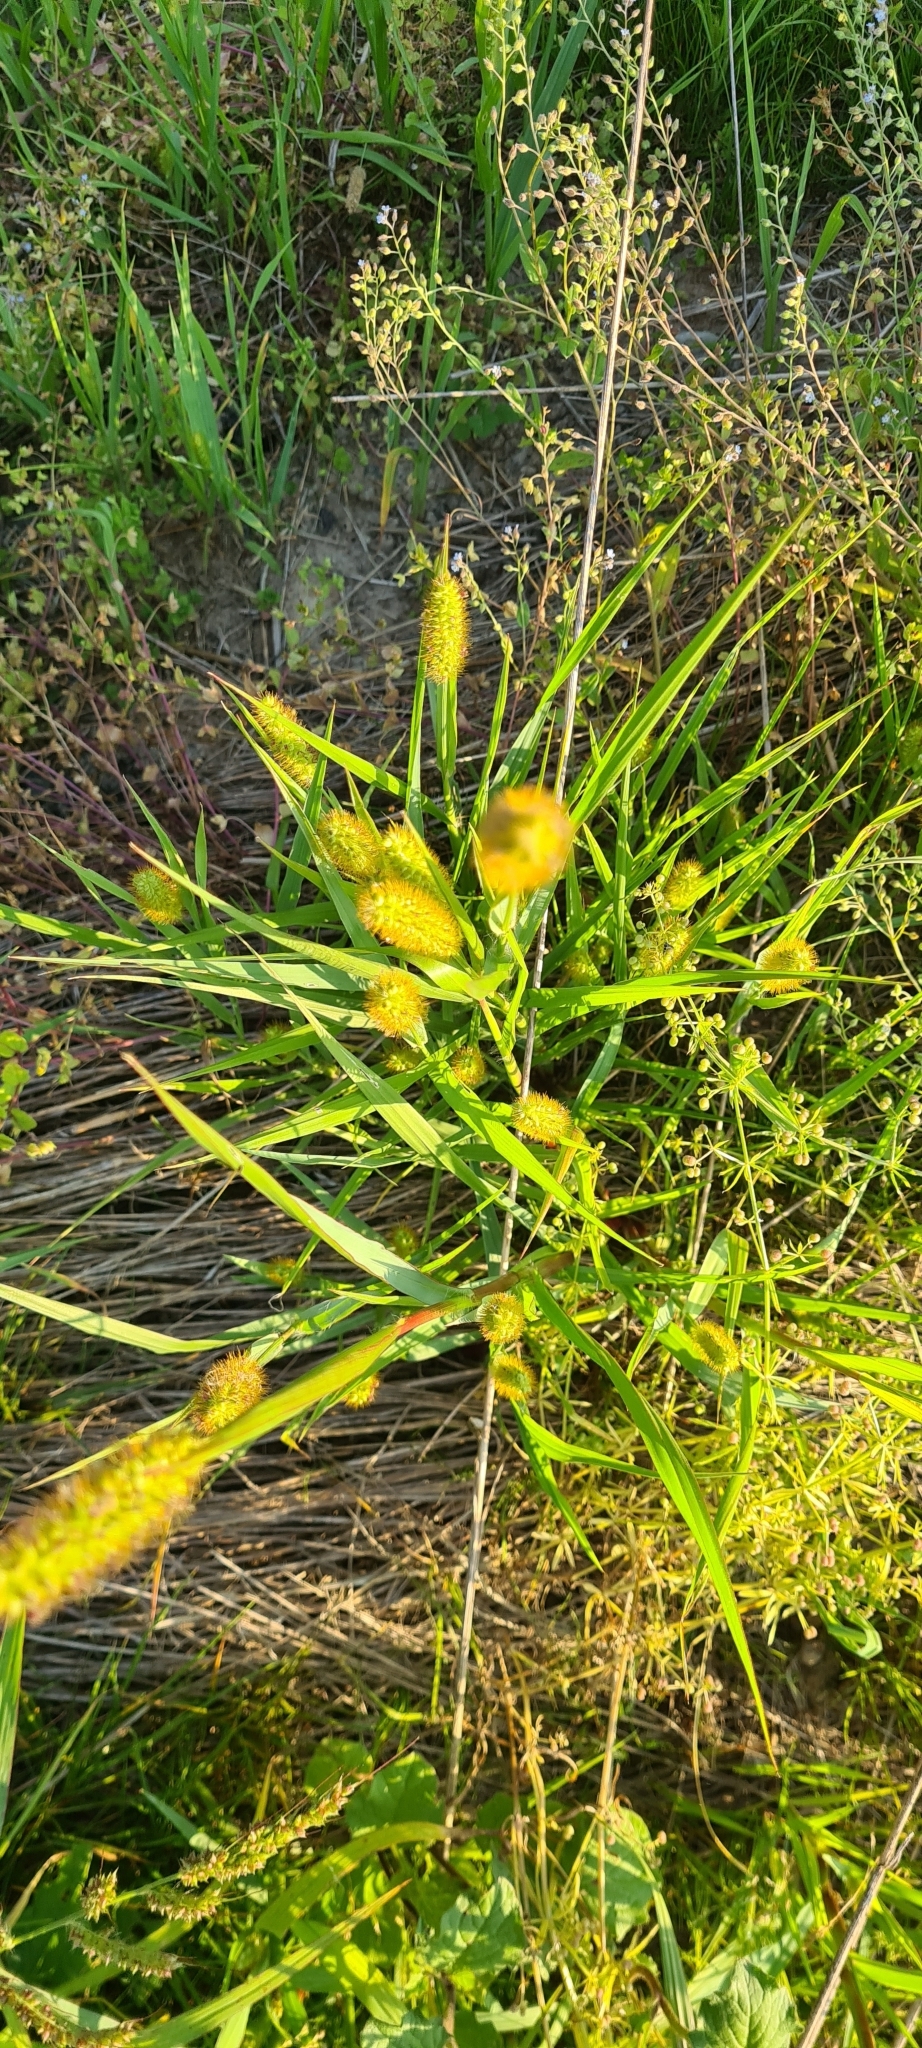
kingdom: Plantae
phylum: Tracheophyta
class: Liliopsida
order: Poales
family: Poaceae
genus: Setaria
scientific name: Setaria pumila
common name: Yellow bristle-grass
